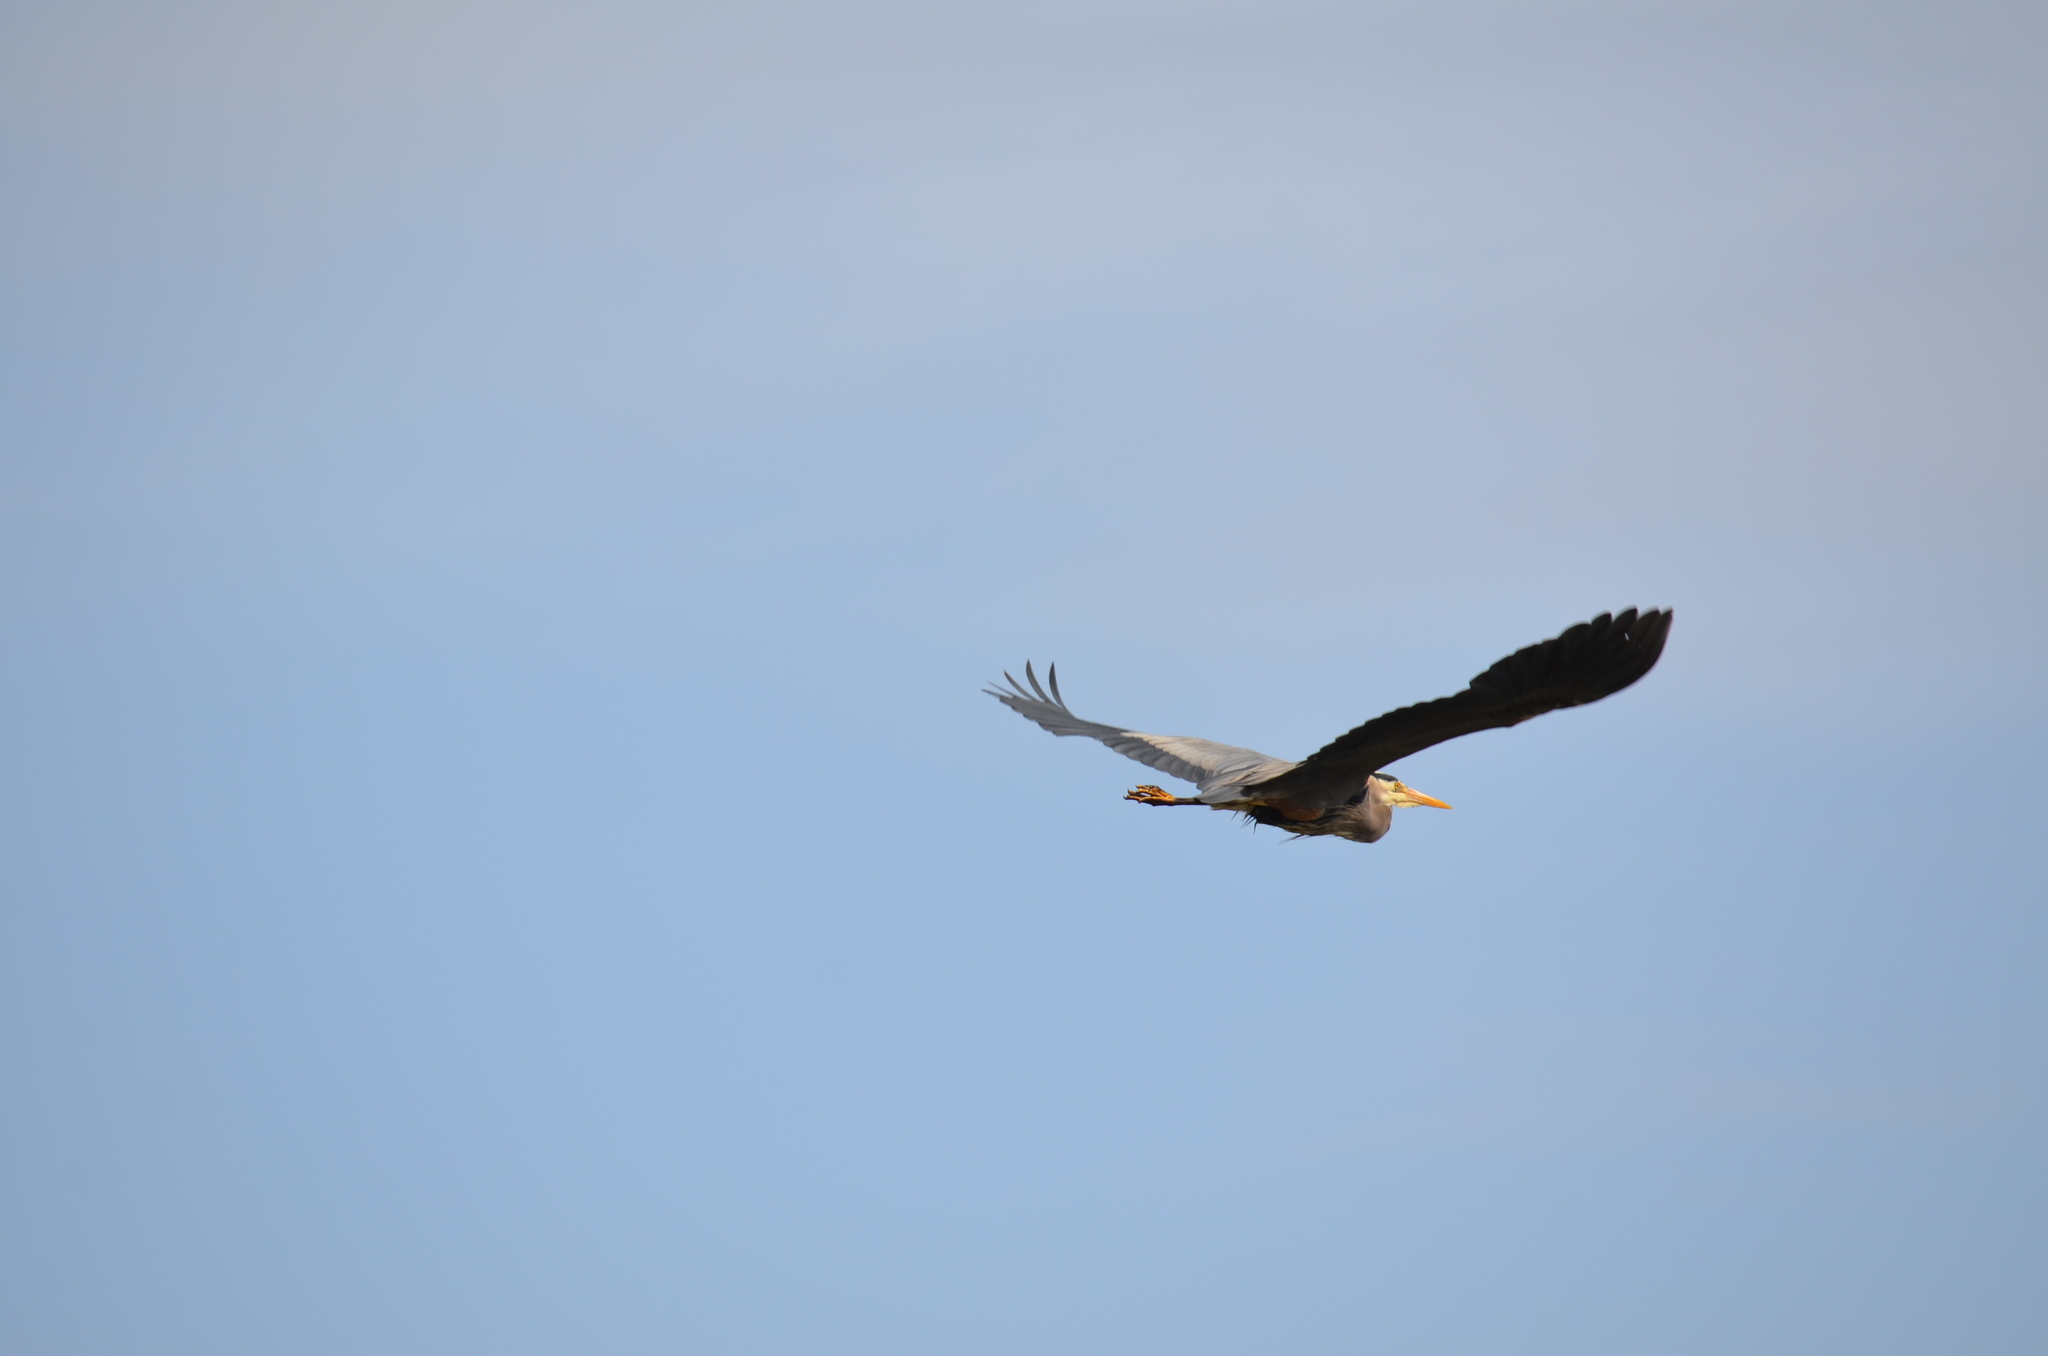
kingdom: Animalia
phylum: Chordata
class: Aves
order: Pelecaniformes
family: Ardeidae
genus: Ardea
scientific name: Ardea herodias
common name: Great blue heron
